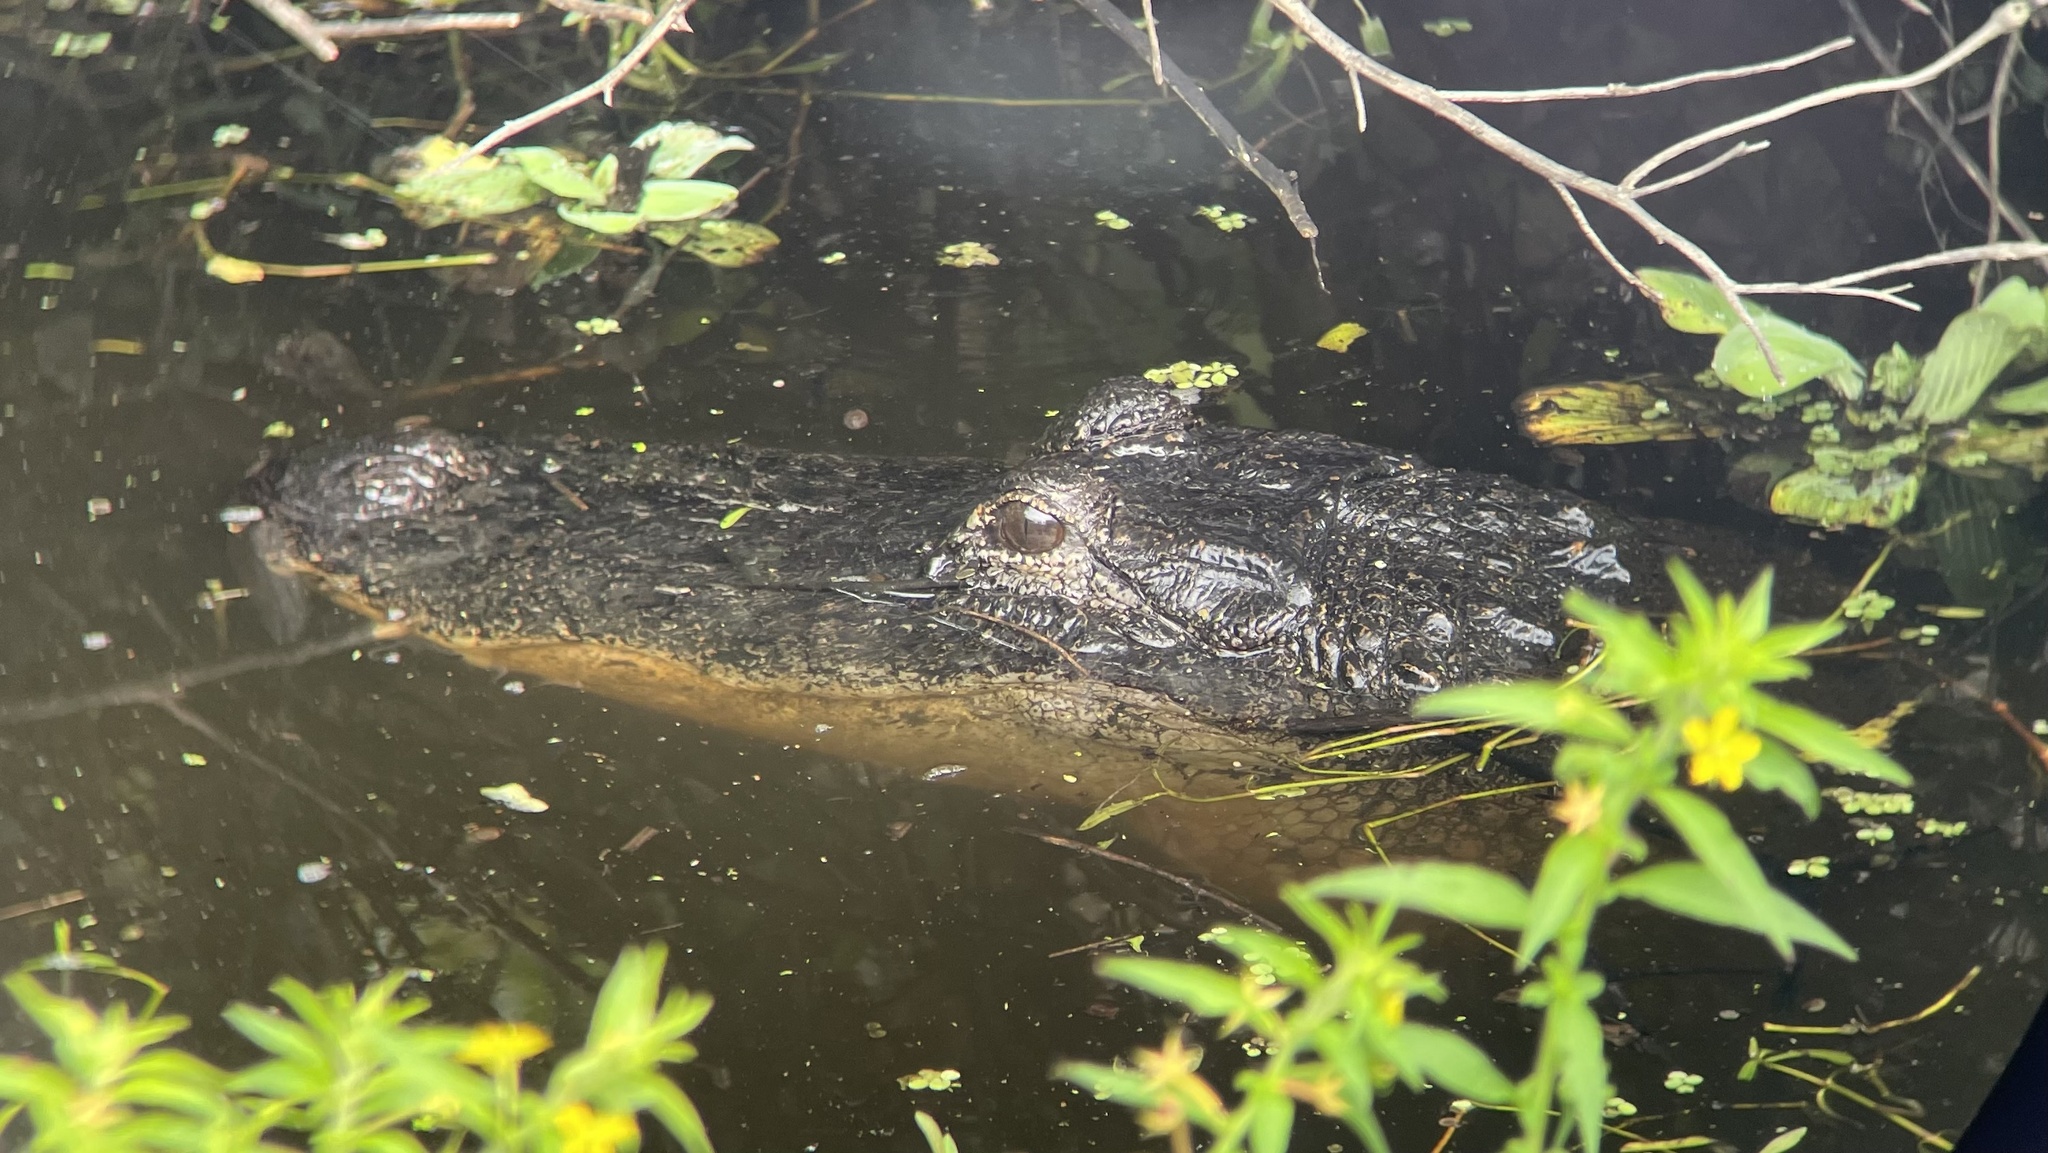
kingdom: Animalia
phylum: Chordata
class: Crocodylia
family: Alligatoridae
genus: Alligator
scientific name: Alligator mississippiensis
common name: American alligator
